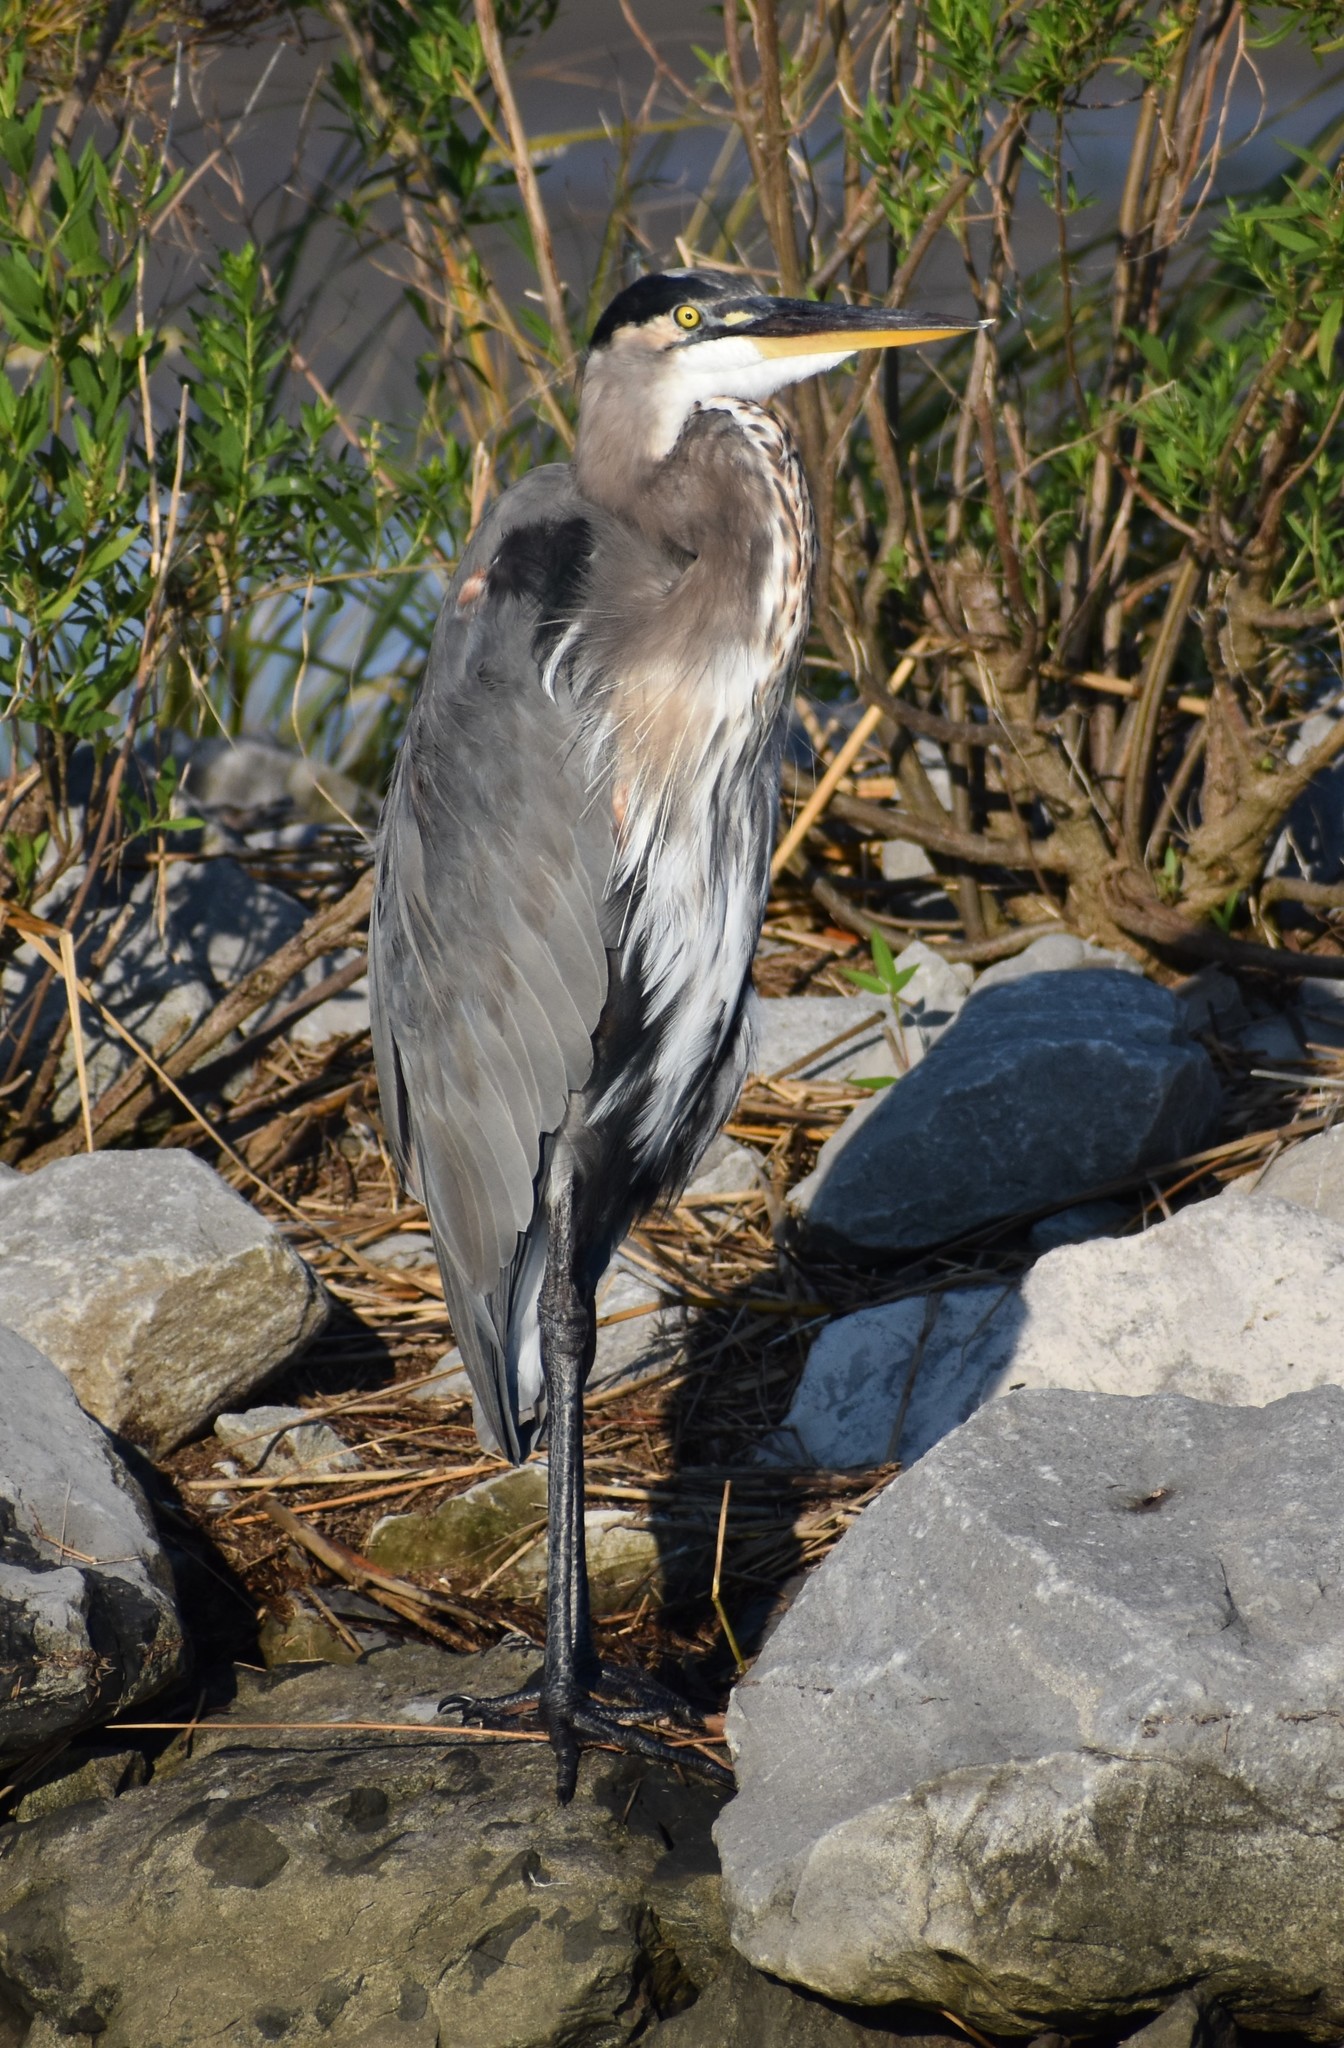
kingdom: Animalia
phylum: Chordata
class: Aves
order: Pelecaniformes
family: Ardeidae
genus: Ardea
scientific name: Ardea herodias
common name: Great blue heron
